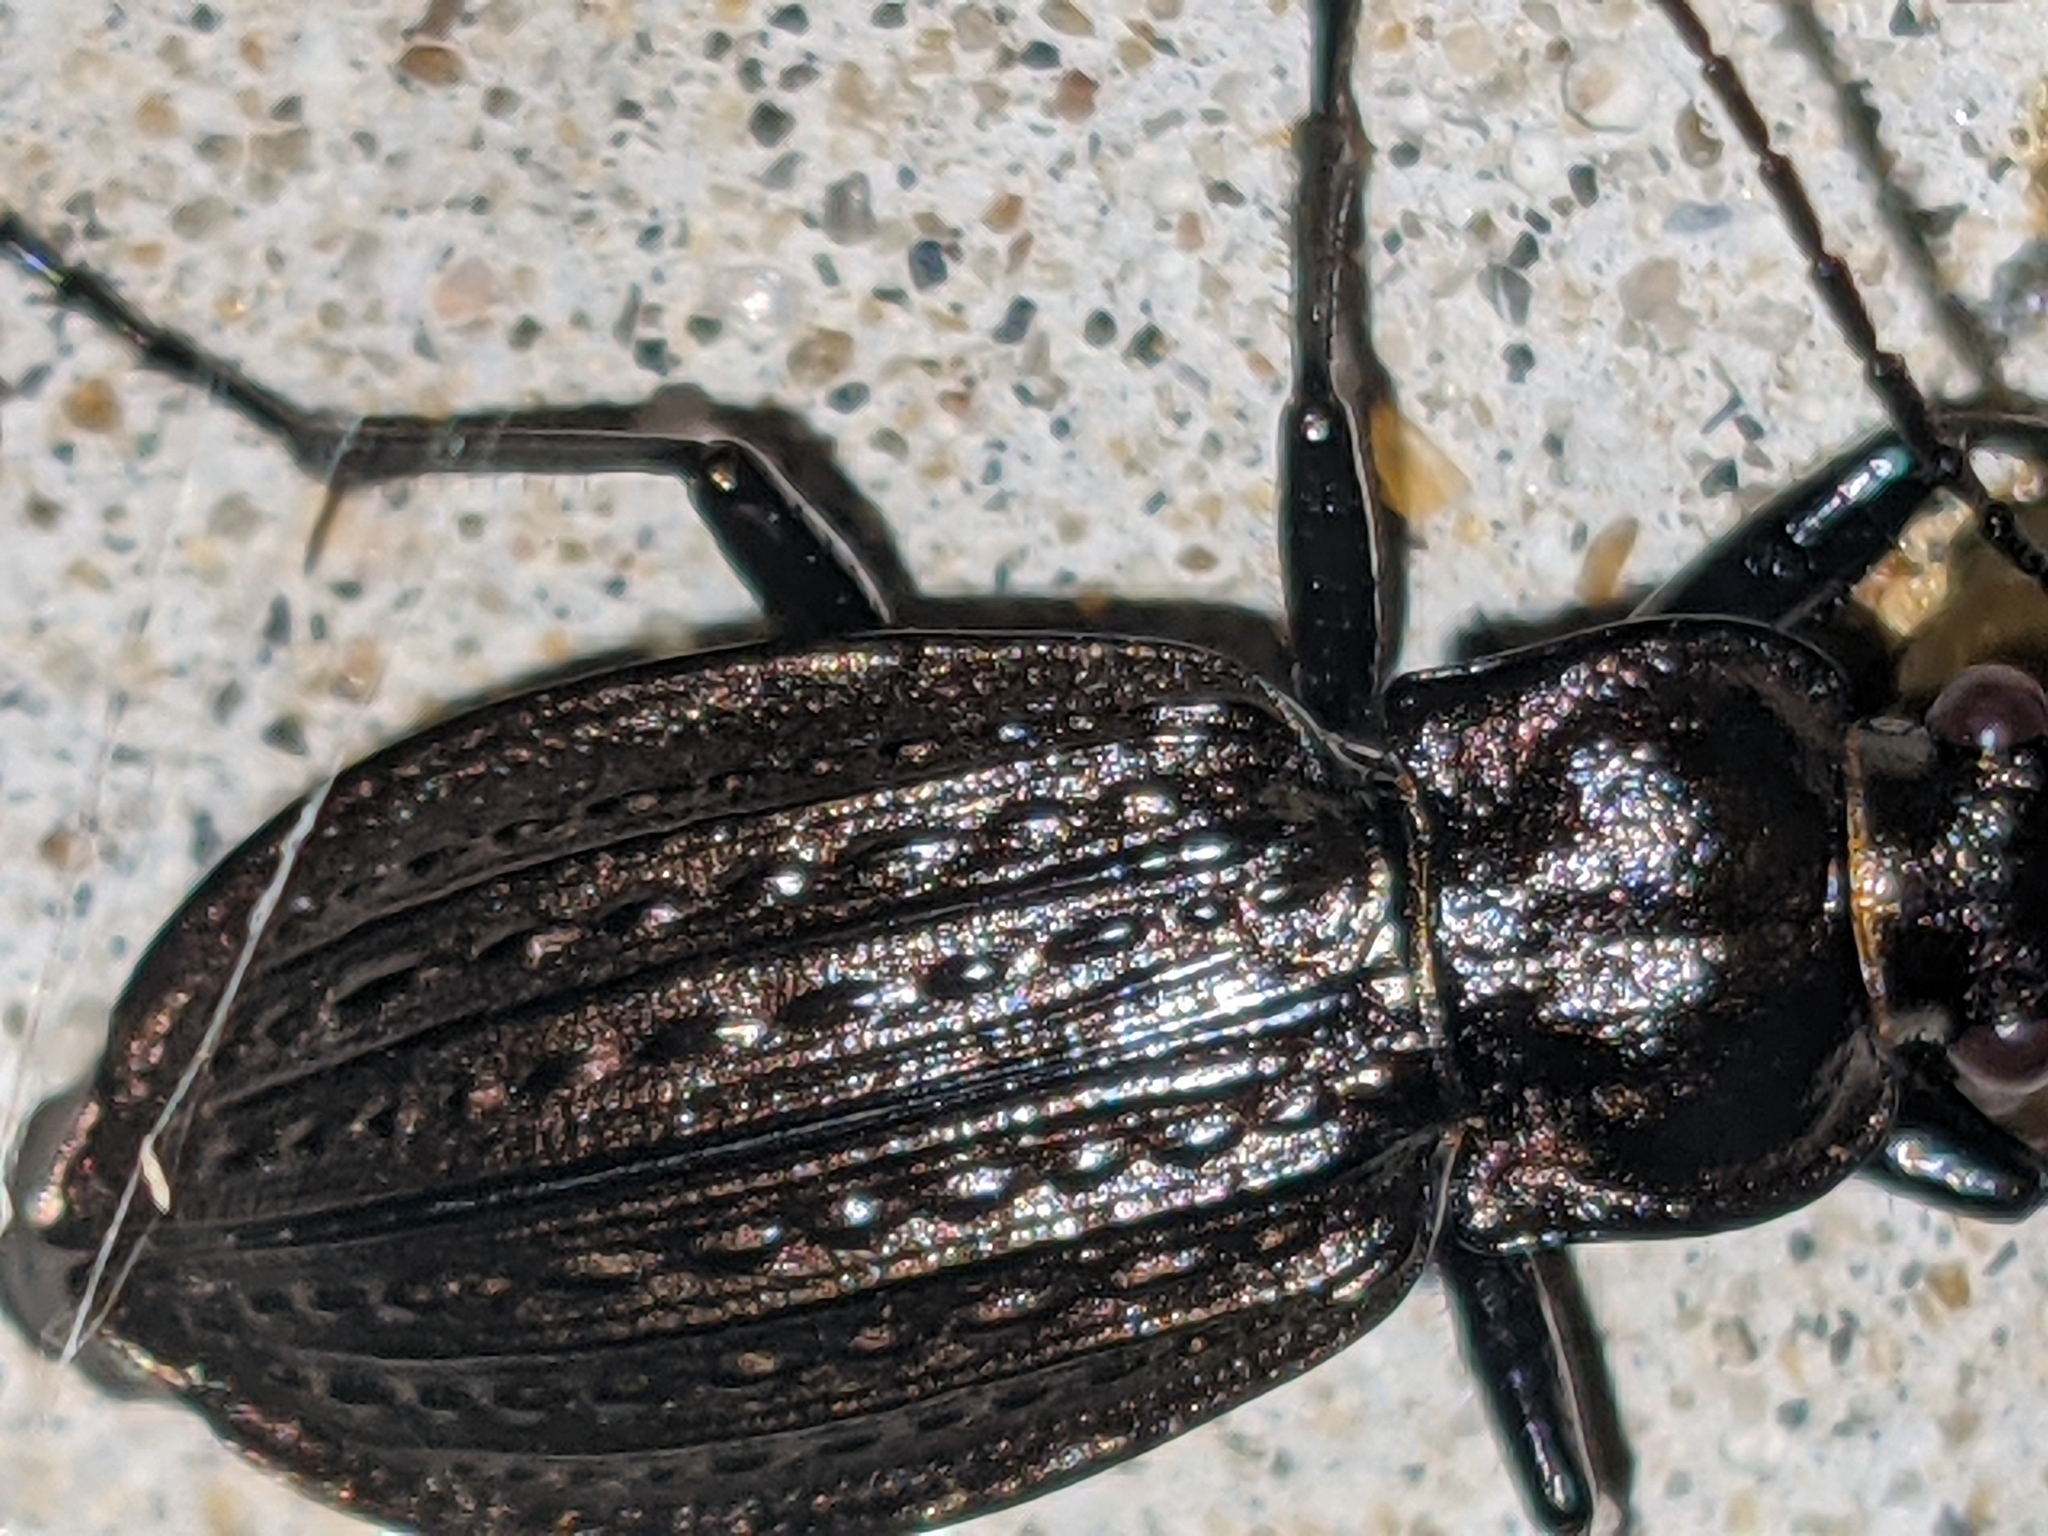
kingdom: Animalia
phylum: Arthropoda
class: Insecta
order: Coleoptera
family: Carabidae
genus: Carabus
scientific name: Carabus granulatus
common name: Granulate ground beetle
